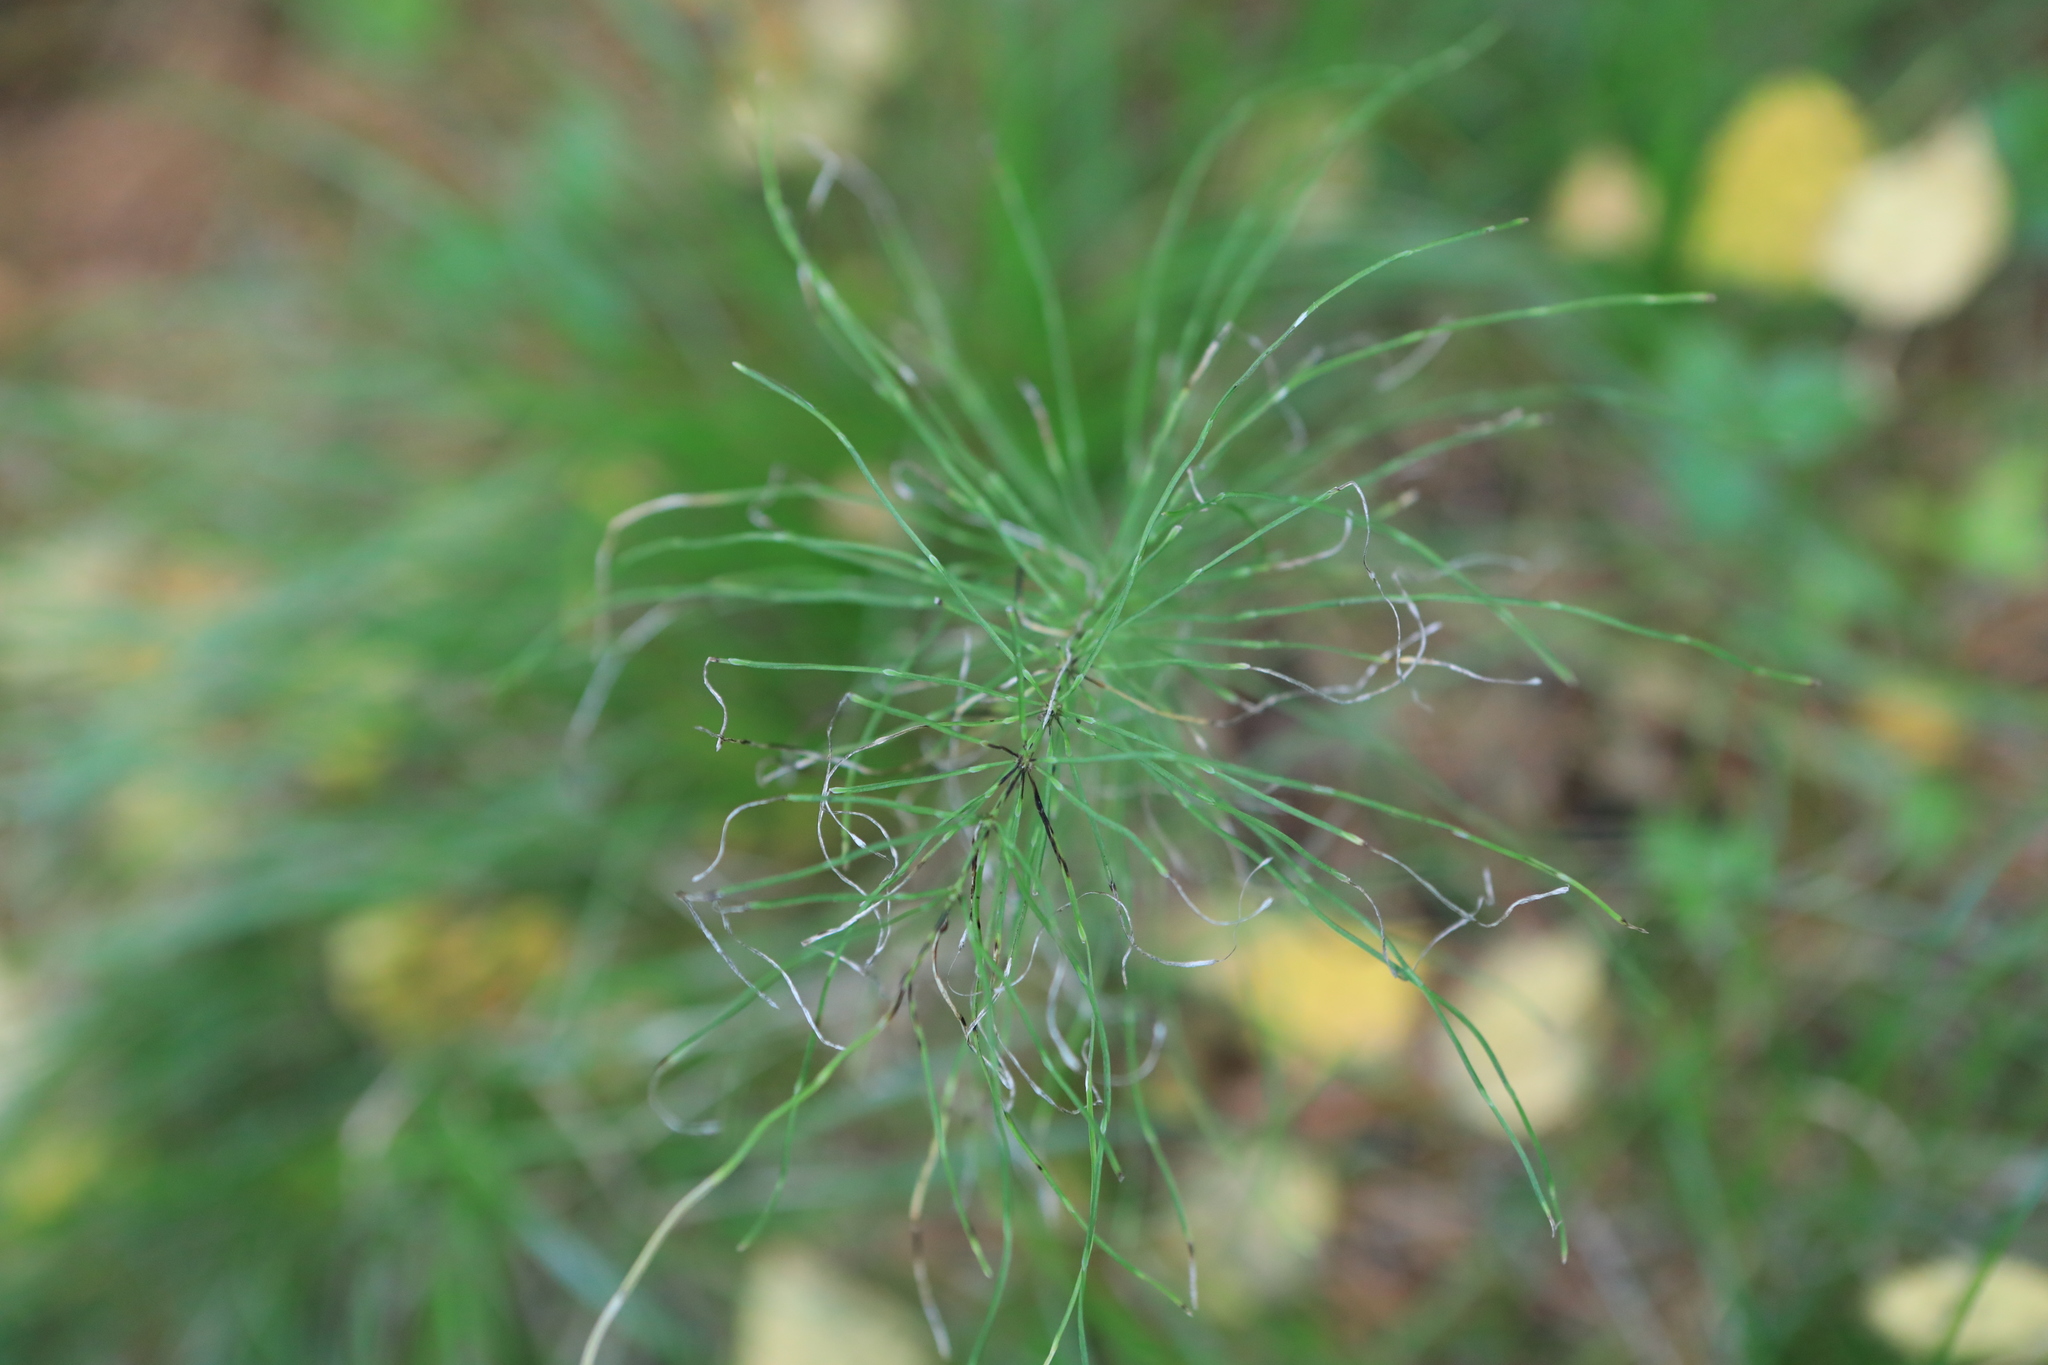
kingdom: Plantae
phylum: Tracheophyta
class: Polypodiopsida
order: Equisetales
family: Equisetaceae
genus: Equisetum
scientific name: Equisetum pratense
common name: Meadow horsetail
